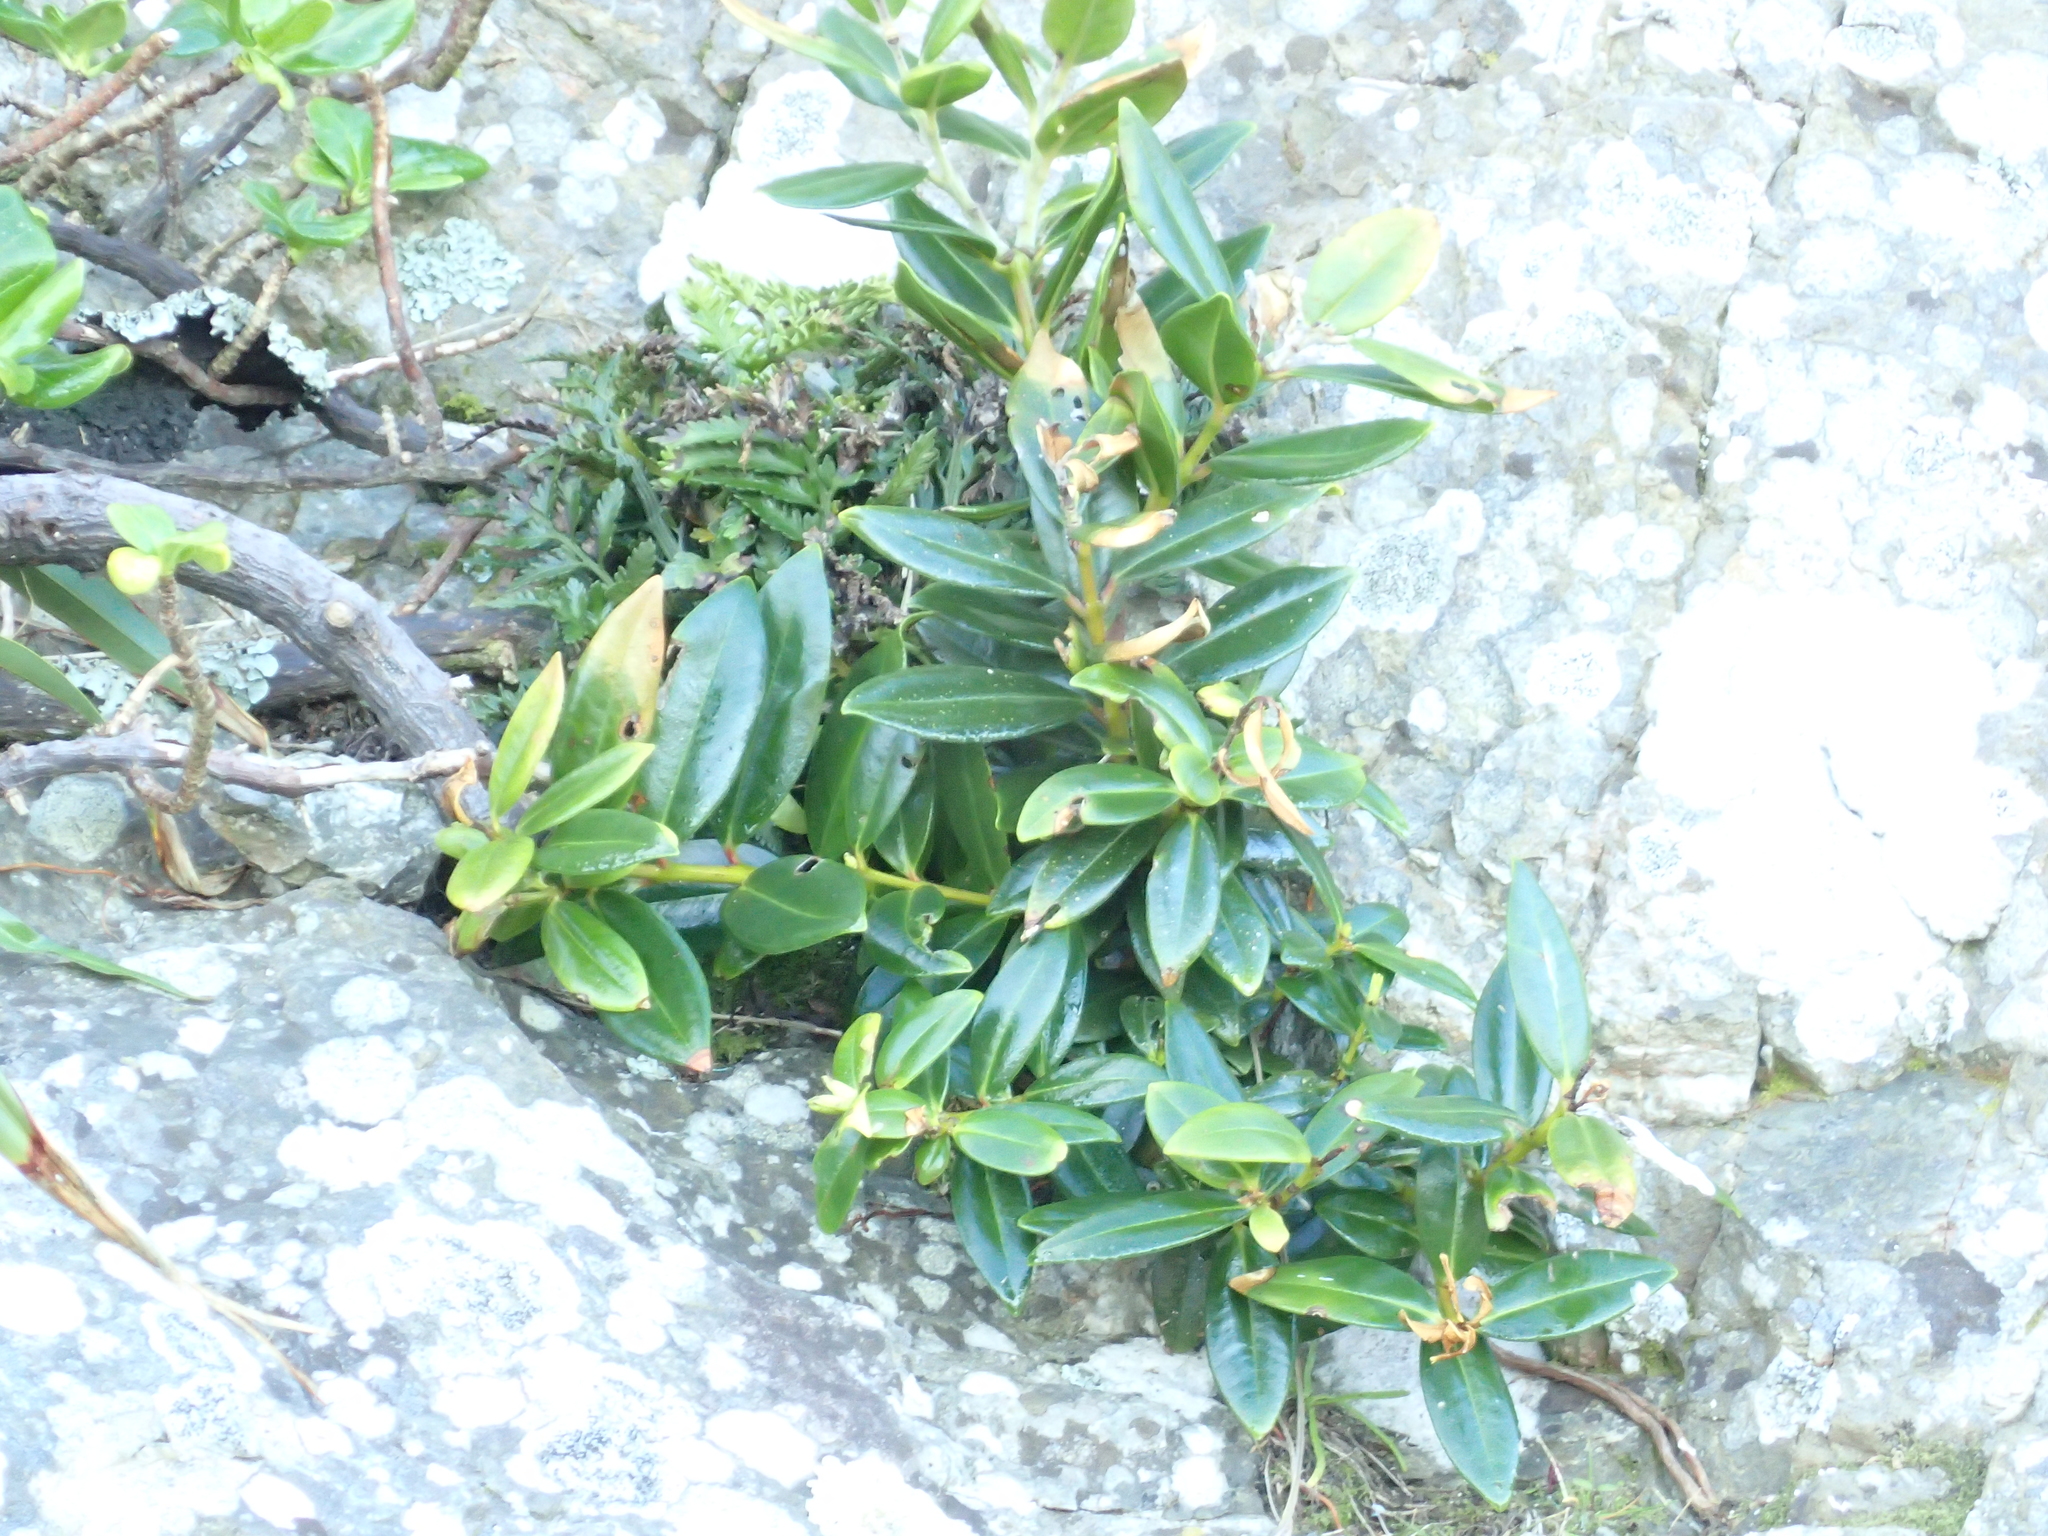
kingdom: Plantae
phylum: Tracheophyta
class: Magnoliopsida
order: Myrtales
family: Myrtaceae
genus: Metrosideros
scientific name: Metrosideros excelsa
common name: New zealand christmastree
